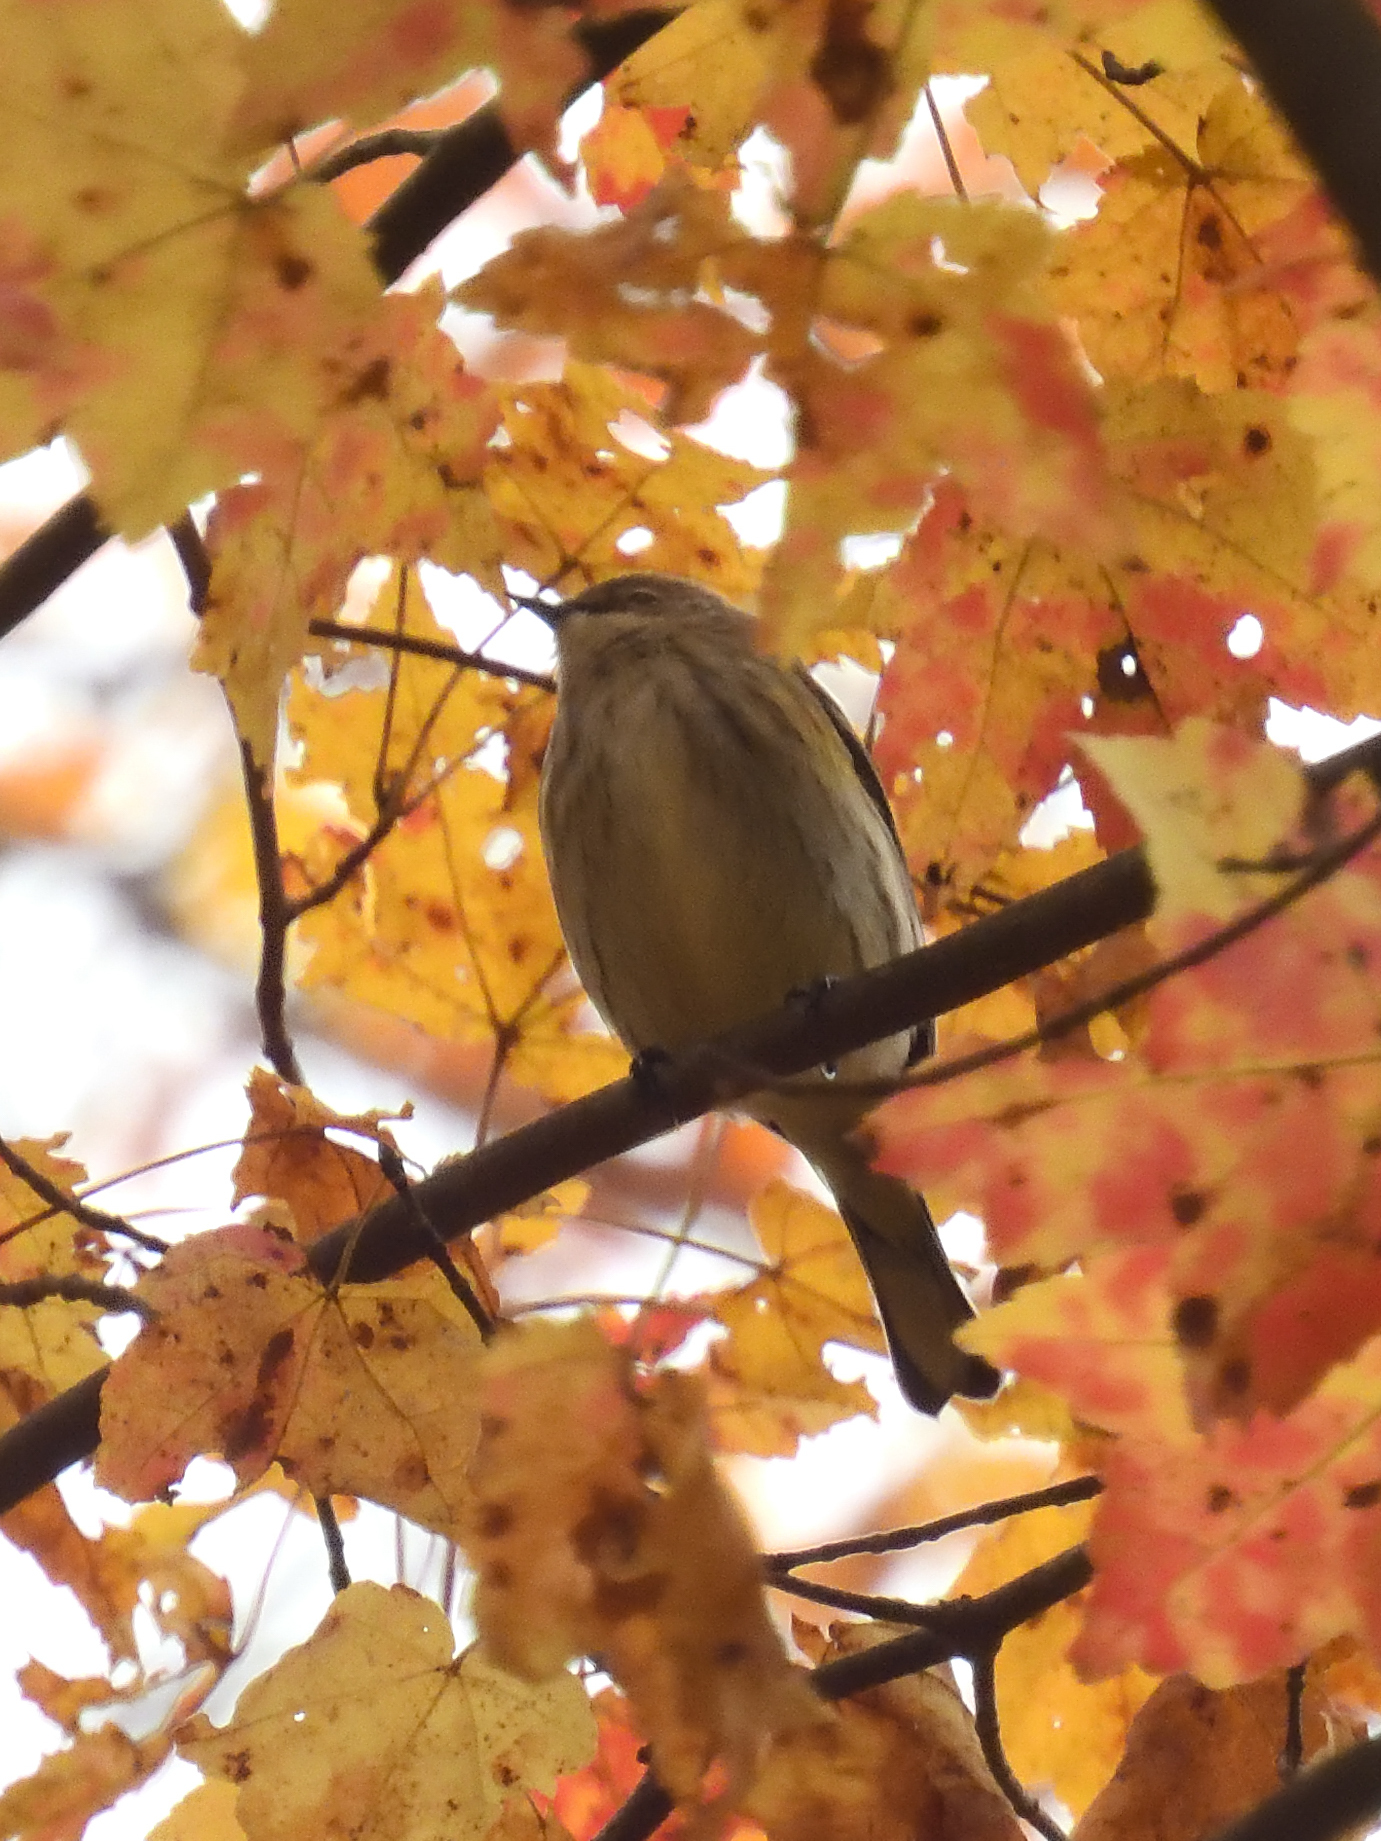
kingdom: Animalia
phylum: Chordata
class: Aves
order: Passeriformes
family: Parulidae
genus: Setophaga
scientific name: Setophaga coronata
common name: Myrtle warbler
